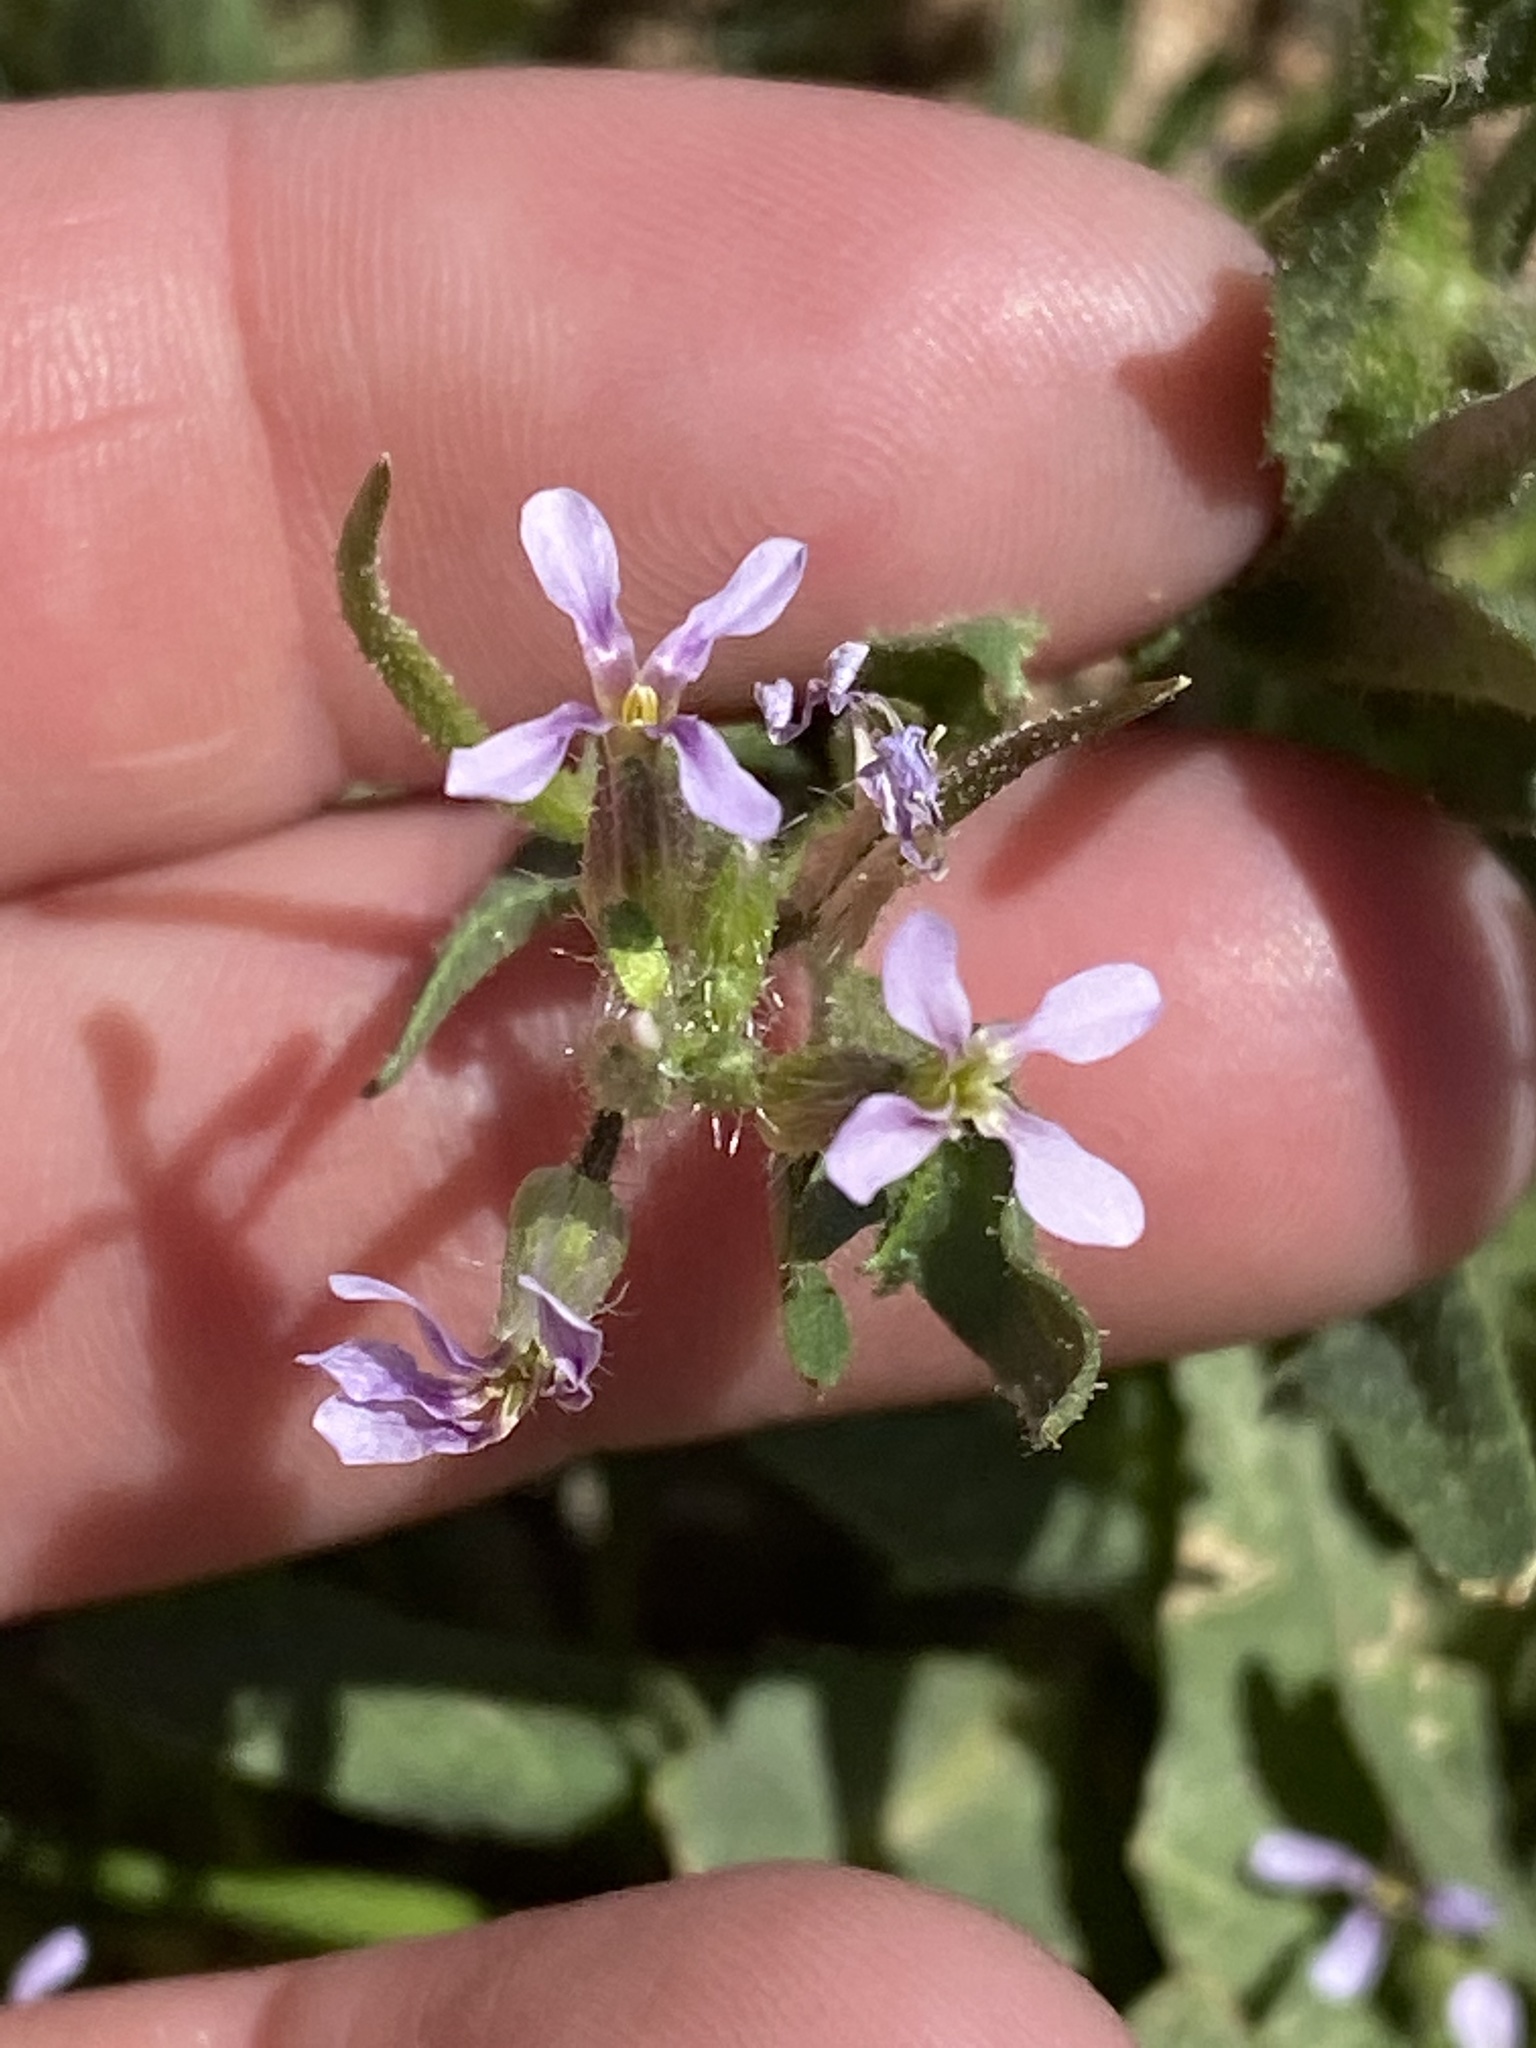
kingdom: Plantae
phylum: Tracheophyta
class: Magnoliopsida
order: Brassicales
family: Brassicaceae
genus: Chorispora
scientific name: Chorispora tenella
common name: Crossflower
